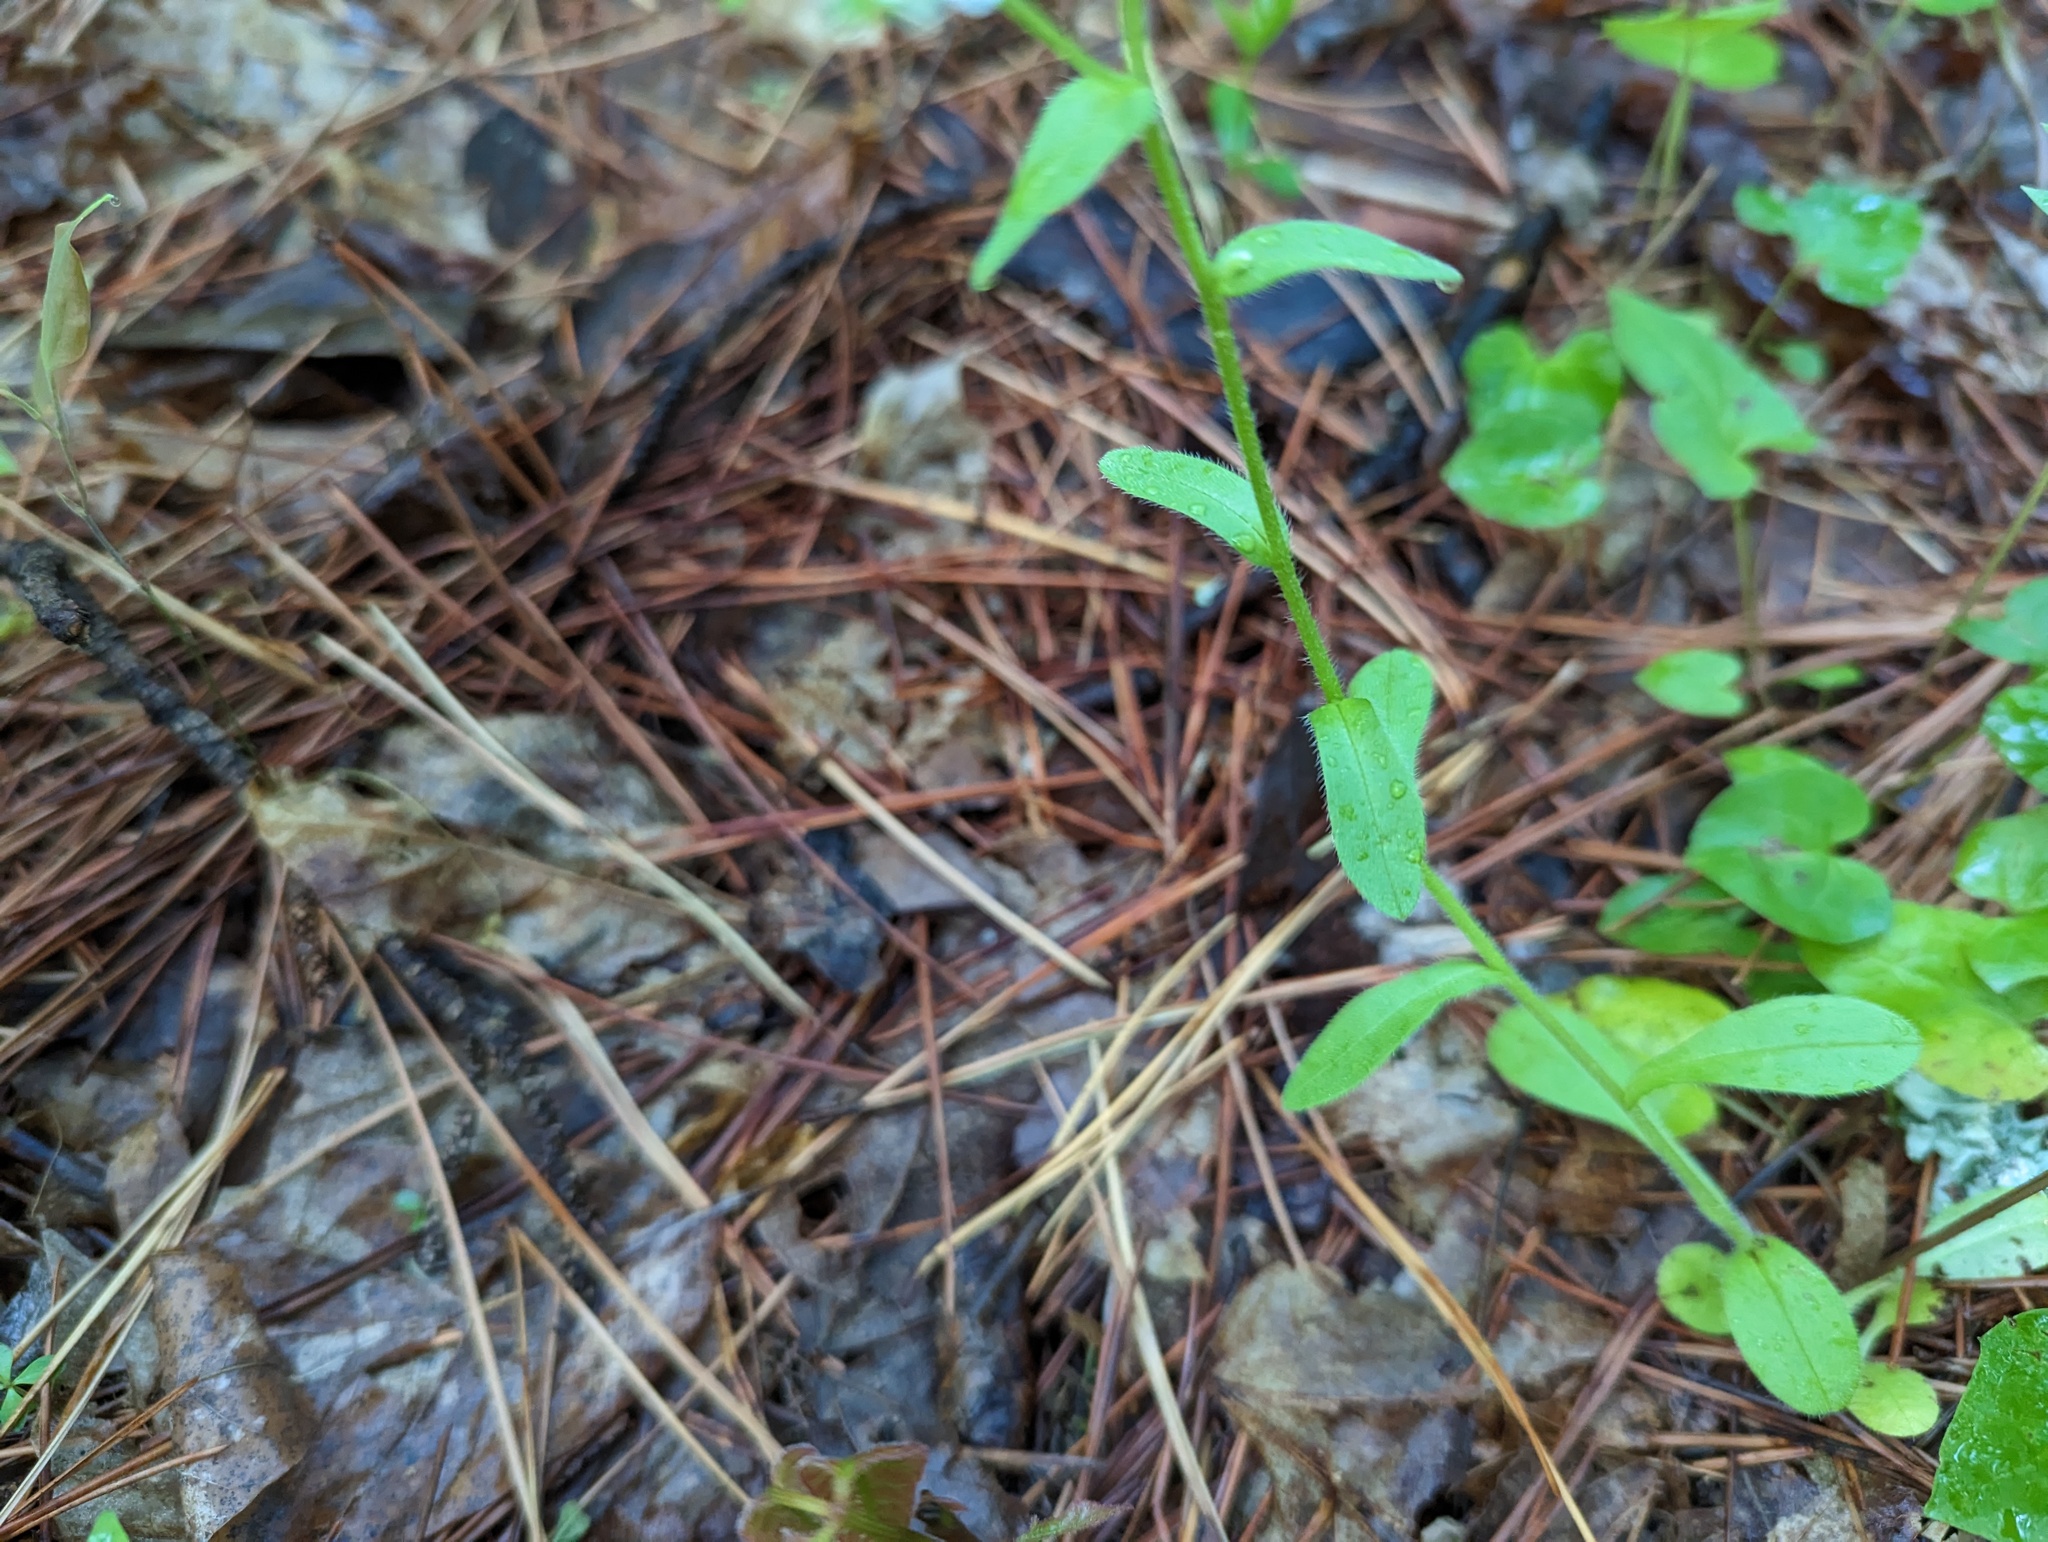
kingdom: Plantae
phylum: Tracheophyta
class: Magnoliopsida
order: Boraginales
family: Boraginaceae
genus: Myosotis
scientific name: Myosotis macrosperma
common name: Large-seed forget-me-not
